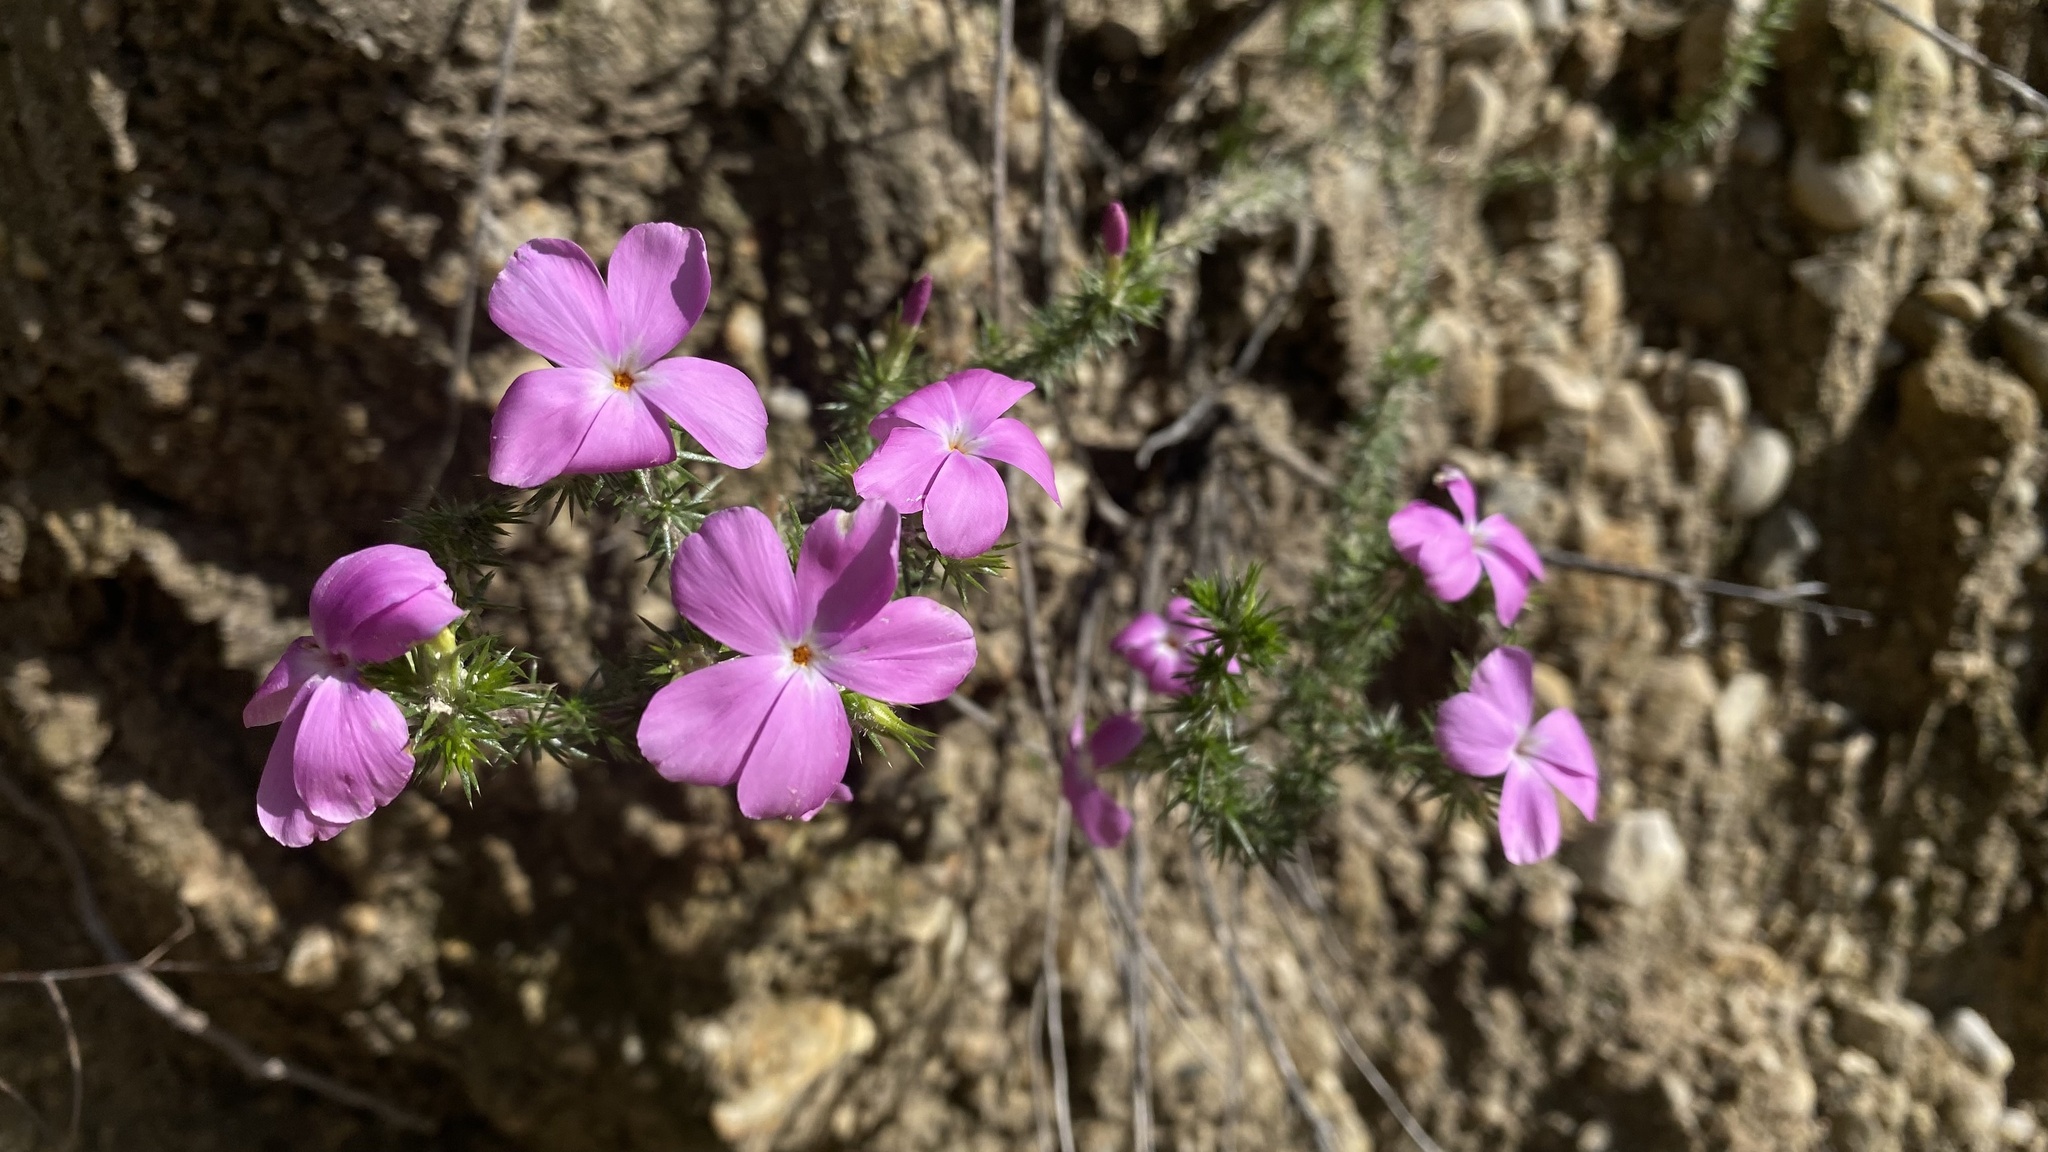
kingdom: Plantae
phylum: Tracheophyta
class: Magnoliopsida
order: Ericales
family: Polemoniaceae
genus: Linanthus
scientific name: Linanthus californicus
